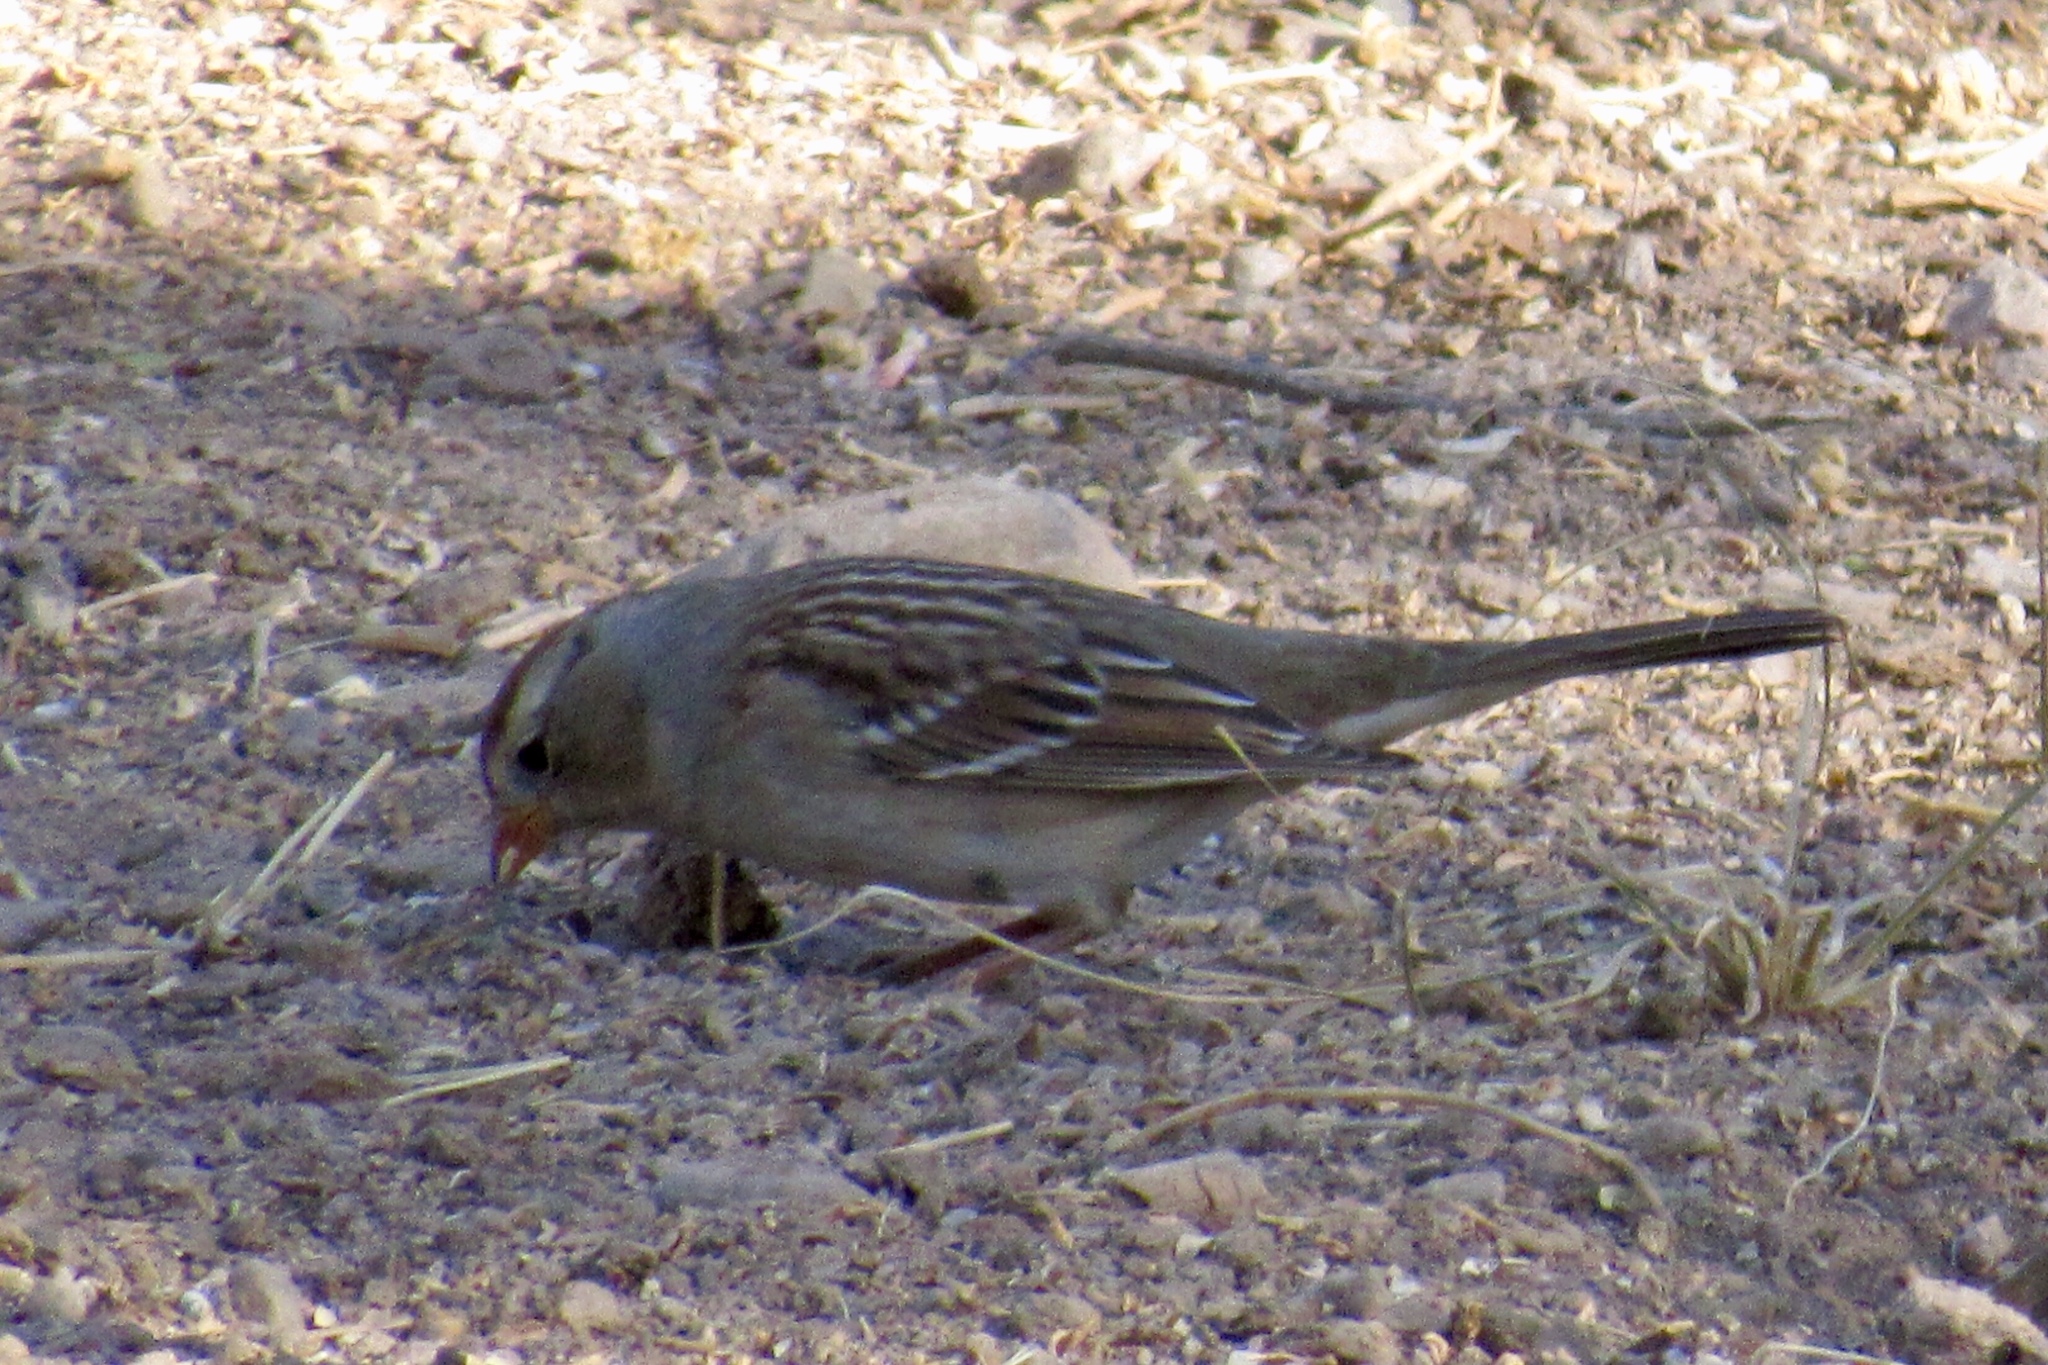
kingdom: Animalia
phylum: Chordata
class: Aves
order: Passeriformes
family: Passerellidae
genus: Zonotrichia
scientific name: Zonotrichia leucophrys
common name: White-crowned sparrow
